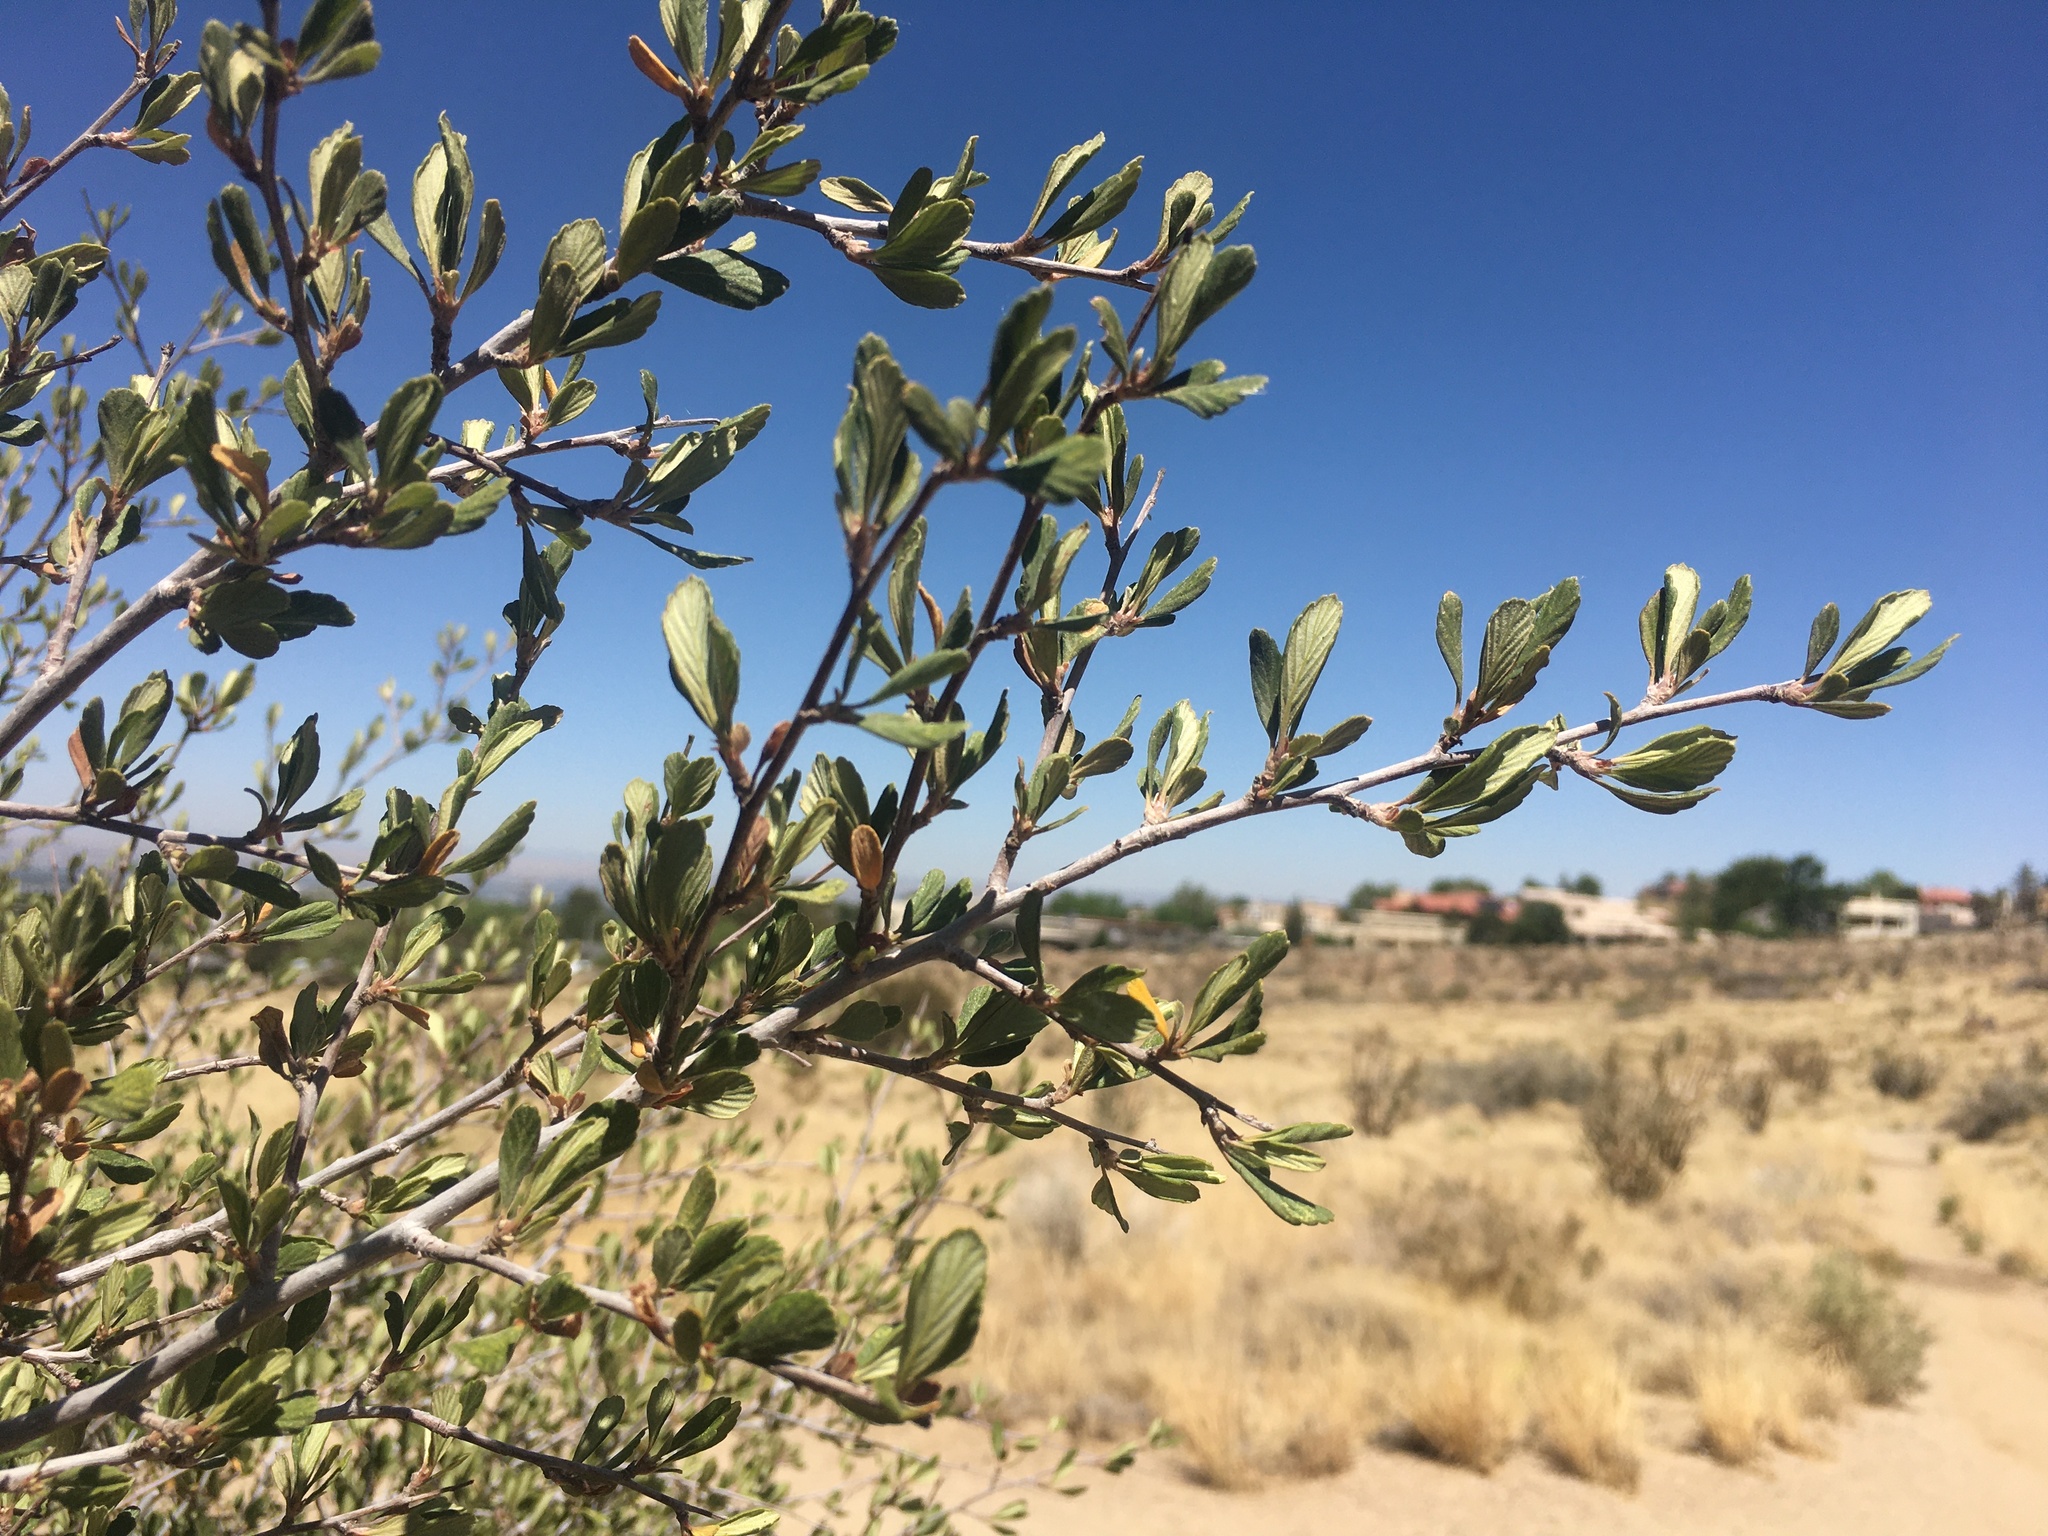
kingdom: Plantae
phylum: Tracheophyta
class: Magnoliopsida
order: Rosales
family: Rosaceae
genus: Cercocarpus
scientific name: Cercocarpus breviflorus
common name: Wright's mountain-mahogany
